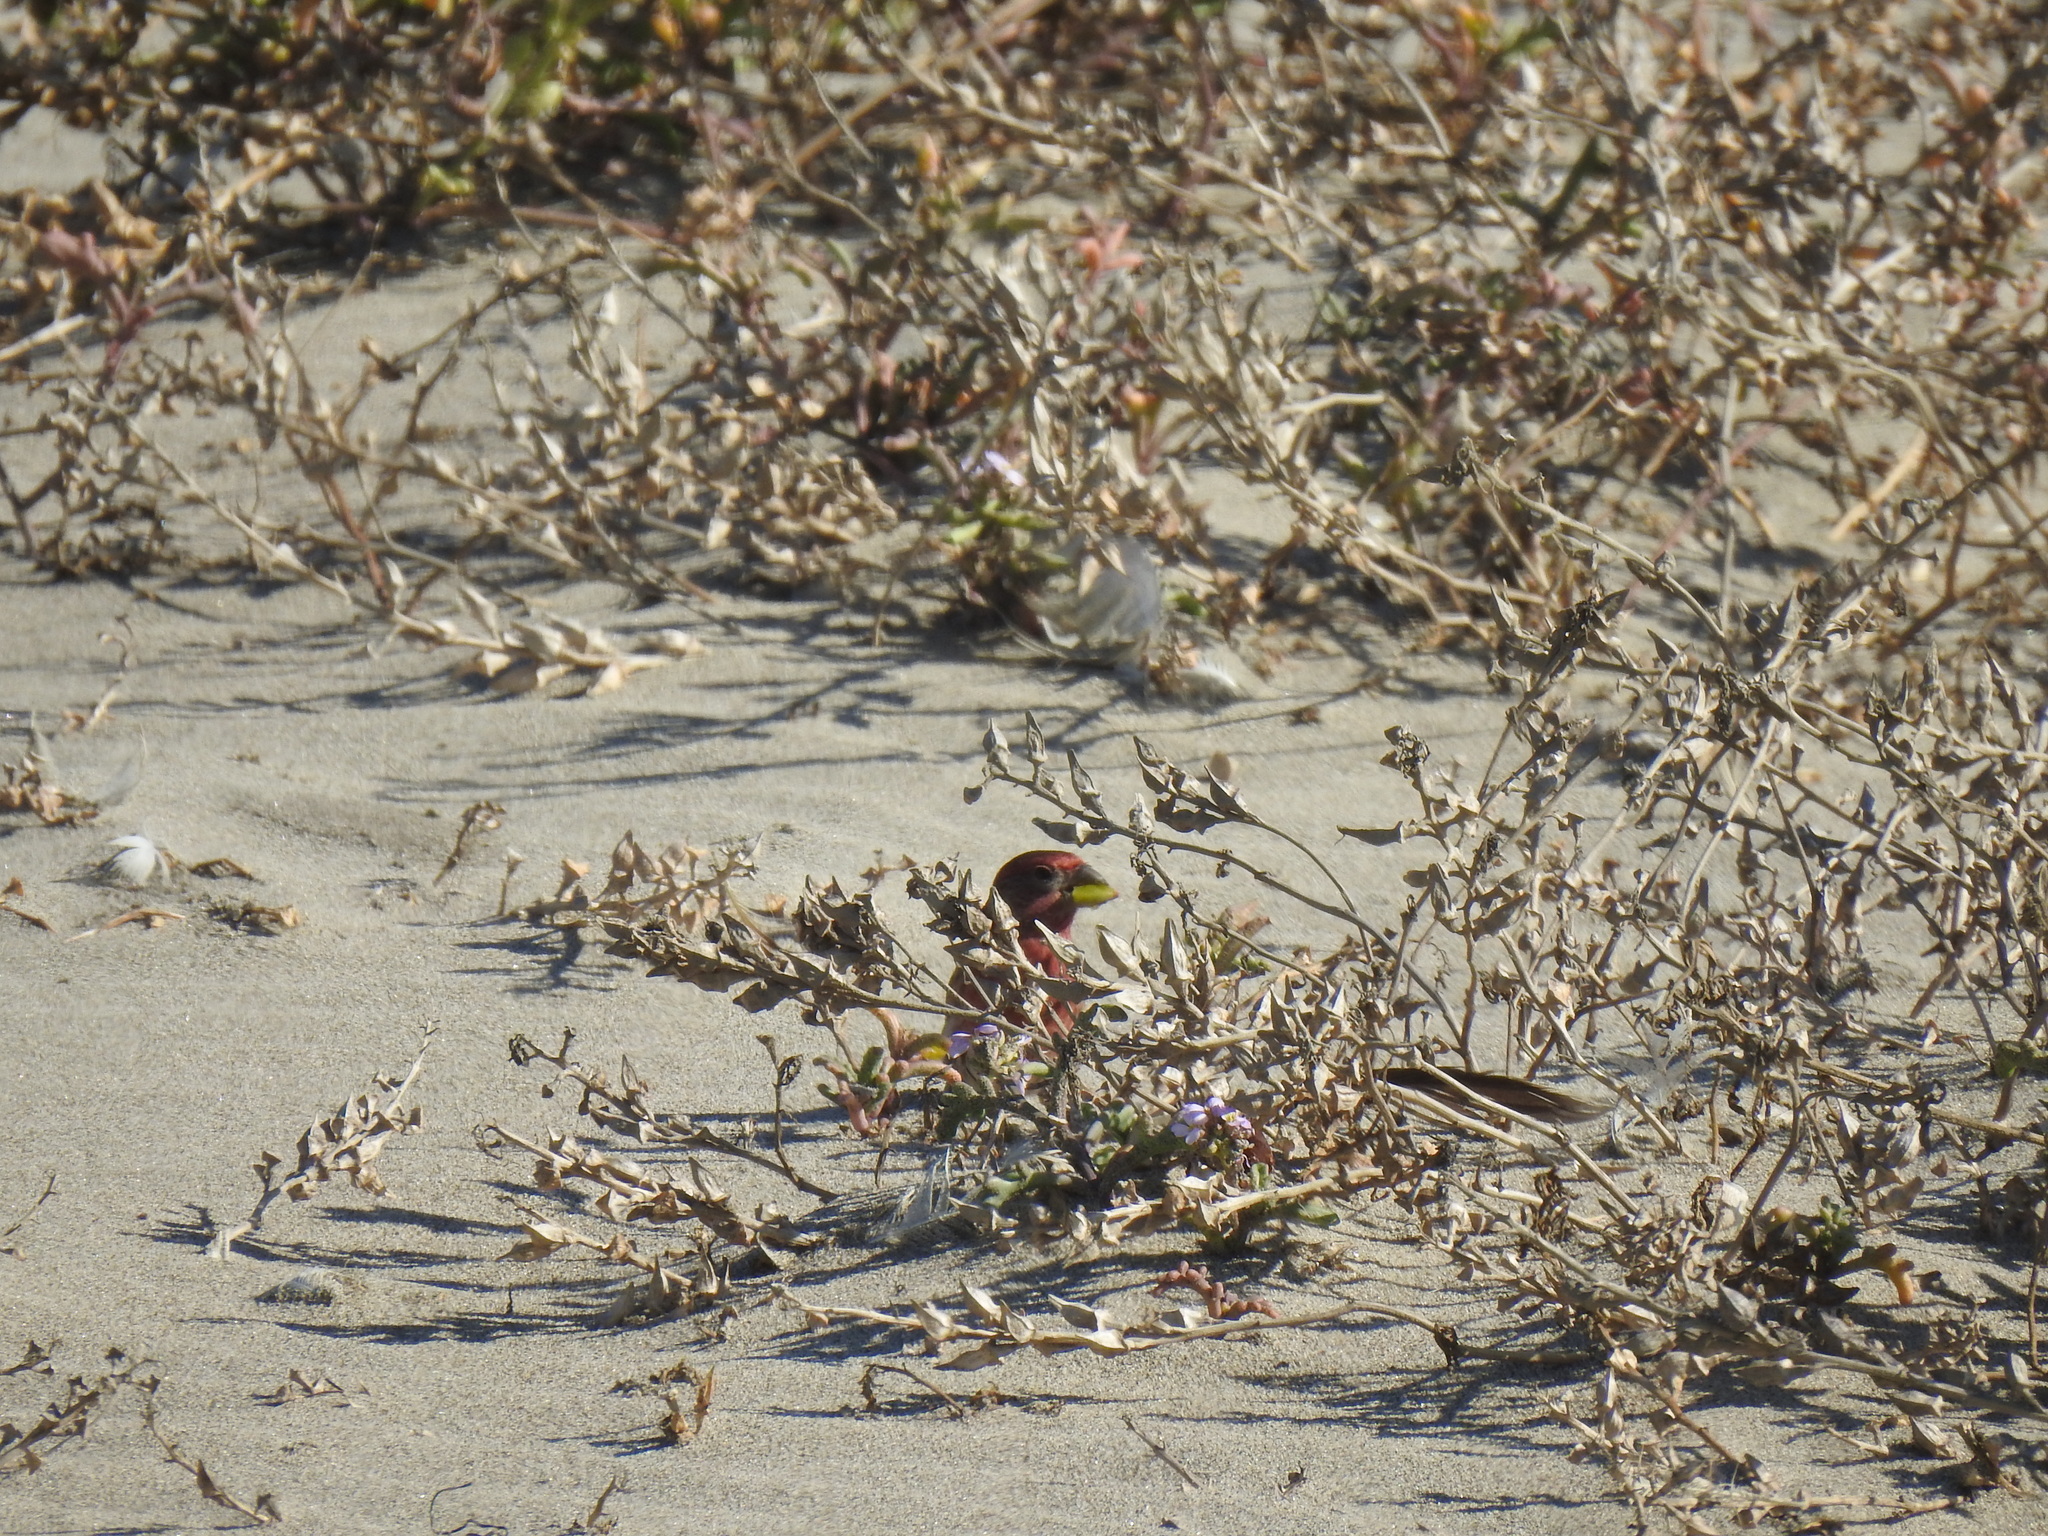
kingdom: Animalia
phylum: Chordata
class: Aves
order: Passeriformes
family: Fringillidae
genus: Haemorhous
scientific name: Haemorhous mexicanus
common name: House finch
